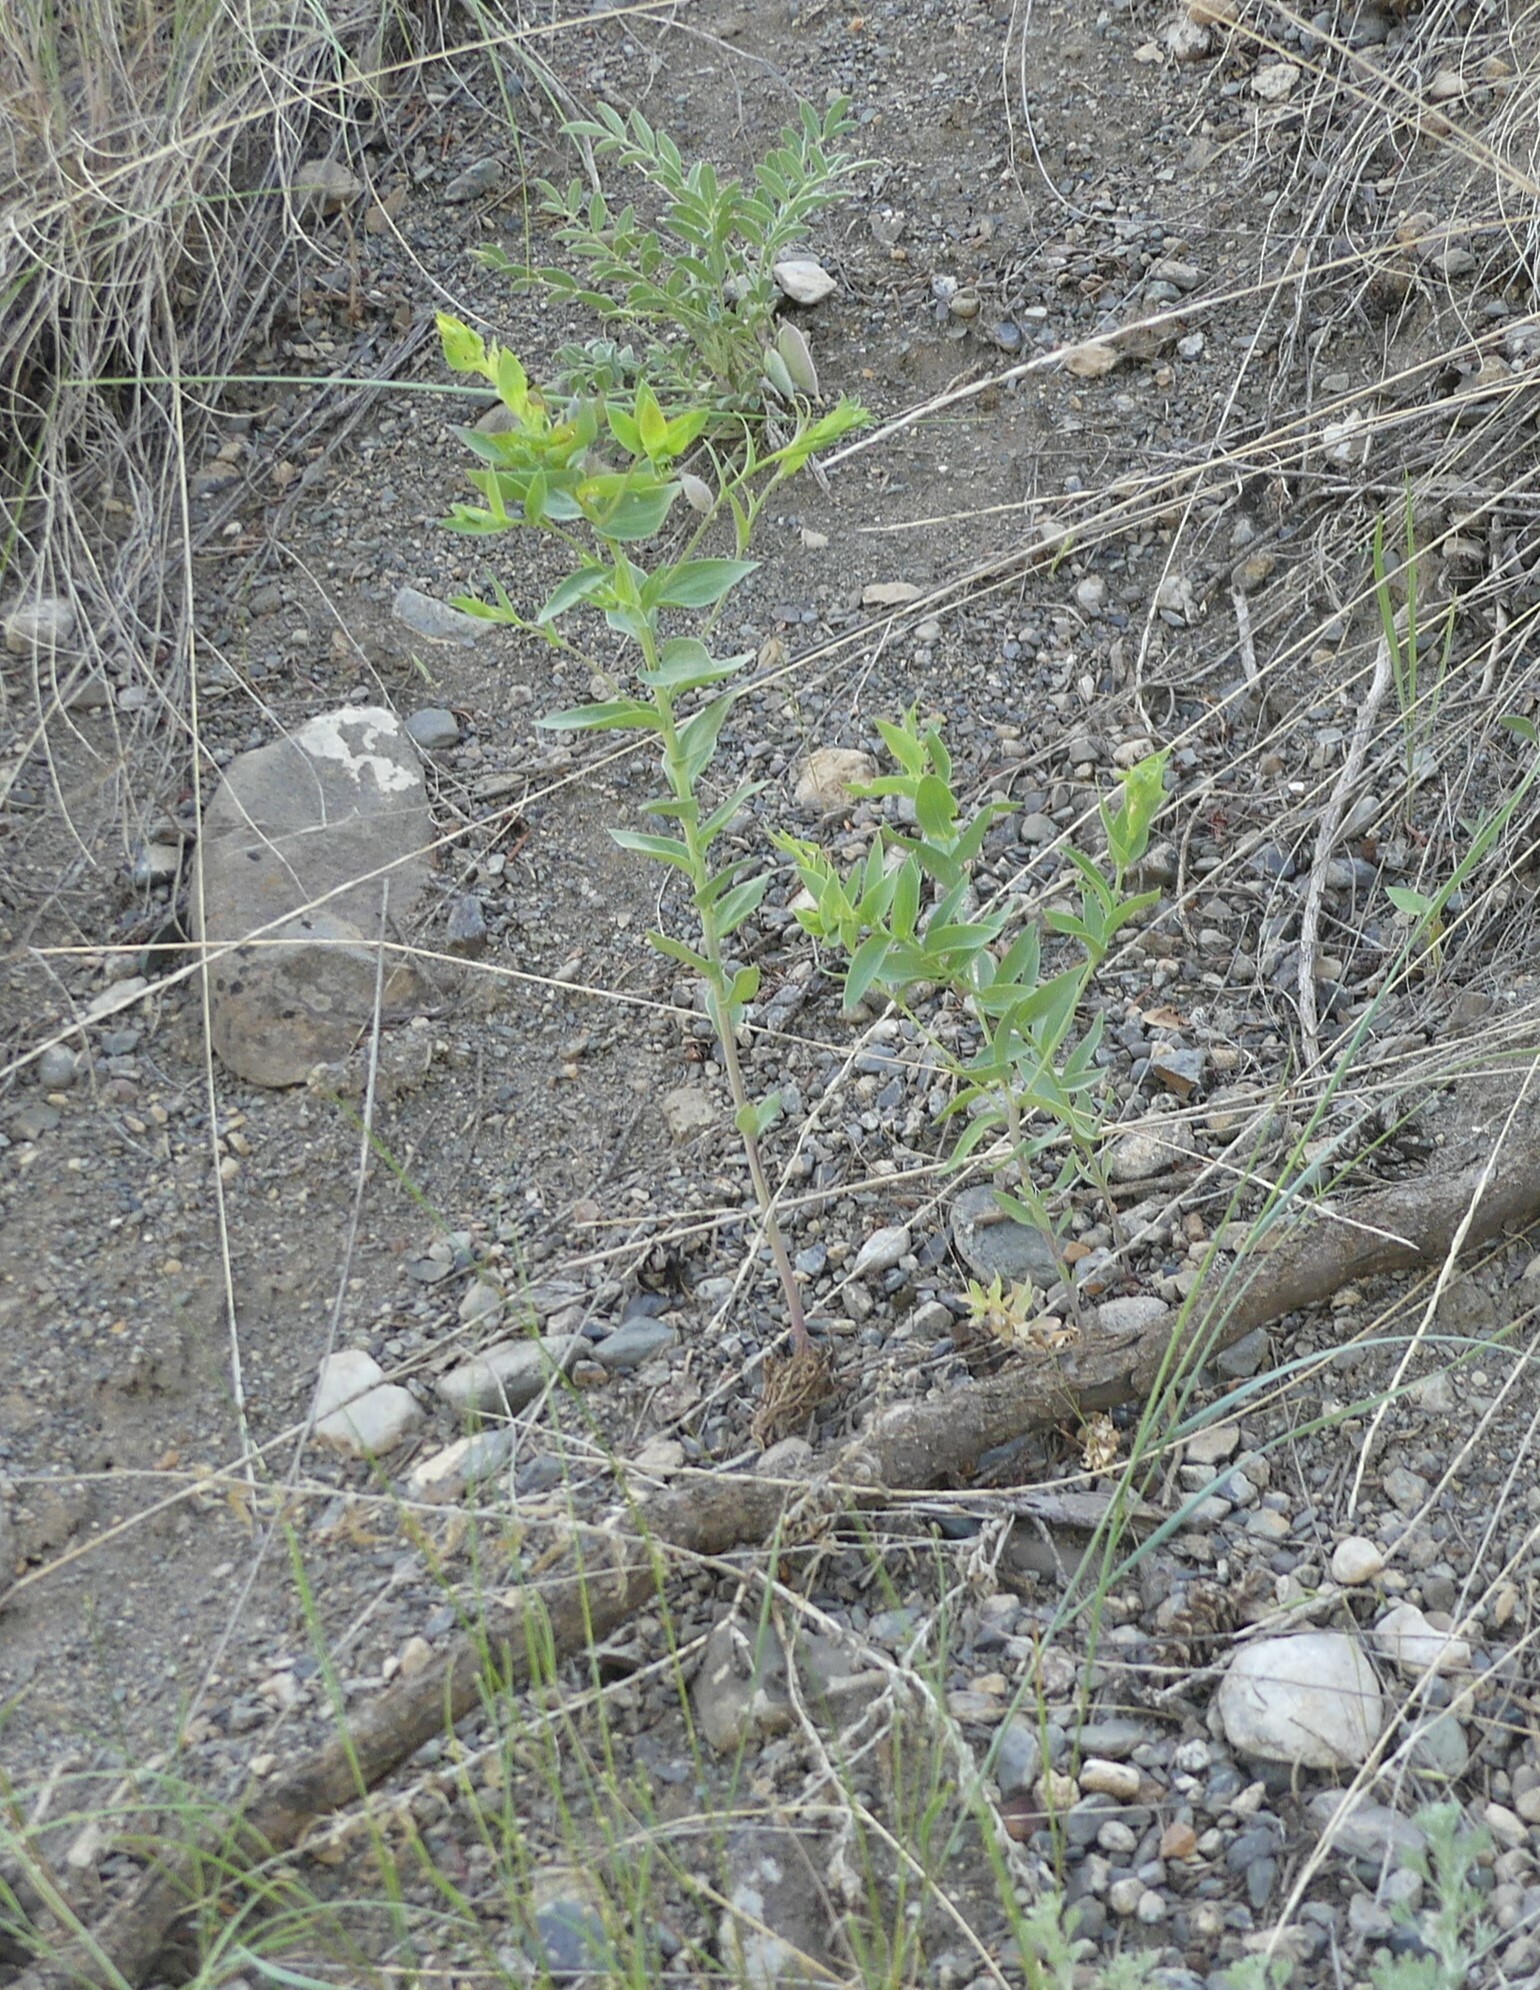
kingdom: Plantae
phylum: Tracheophyta
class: Magnoliopsida
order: Lamiales
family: Plantaginaceae
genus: Linaria
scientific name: Linaria dalmatica
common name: Dalmatian toadflax
